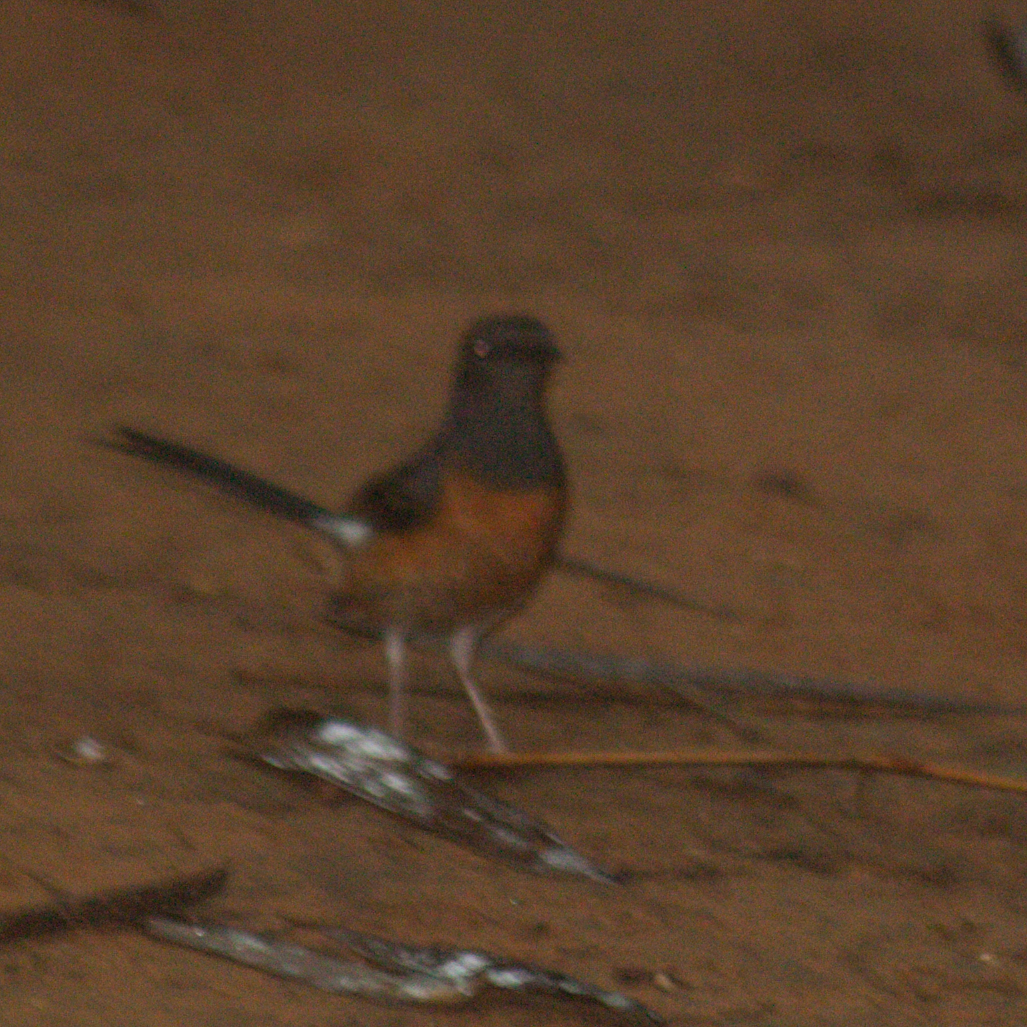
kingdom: Animalia
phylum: Chordata
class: Aves
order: Passeriformes
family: Muscicapidae
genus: Copsychus
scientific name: Copsychus malabaricus
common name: White-rumped shama
